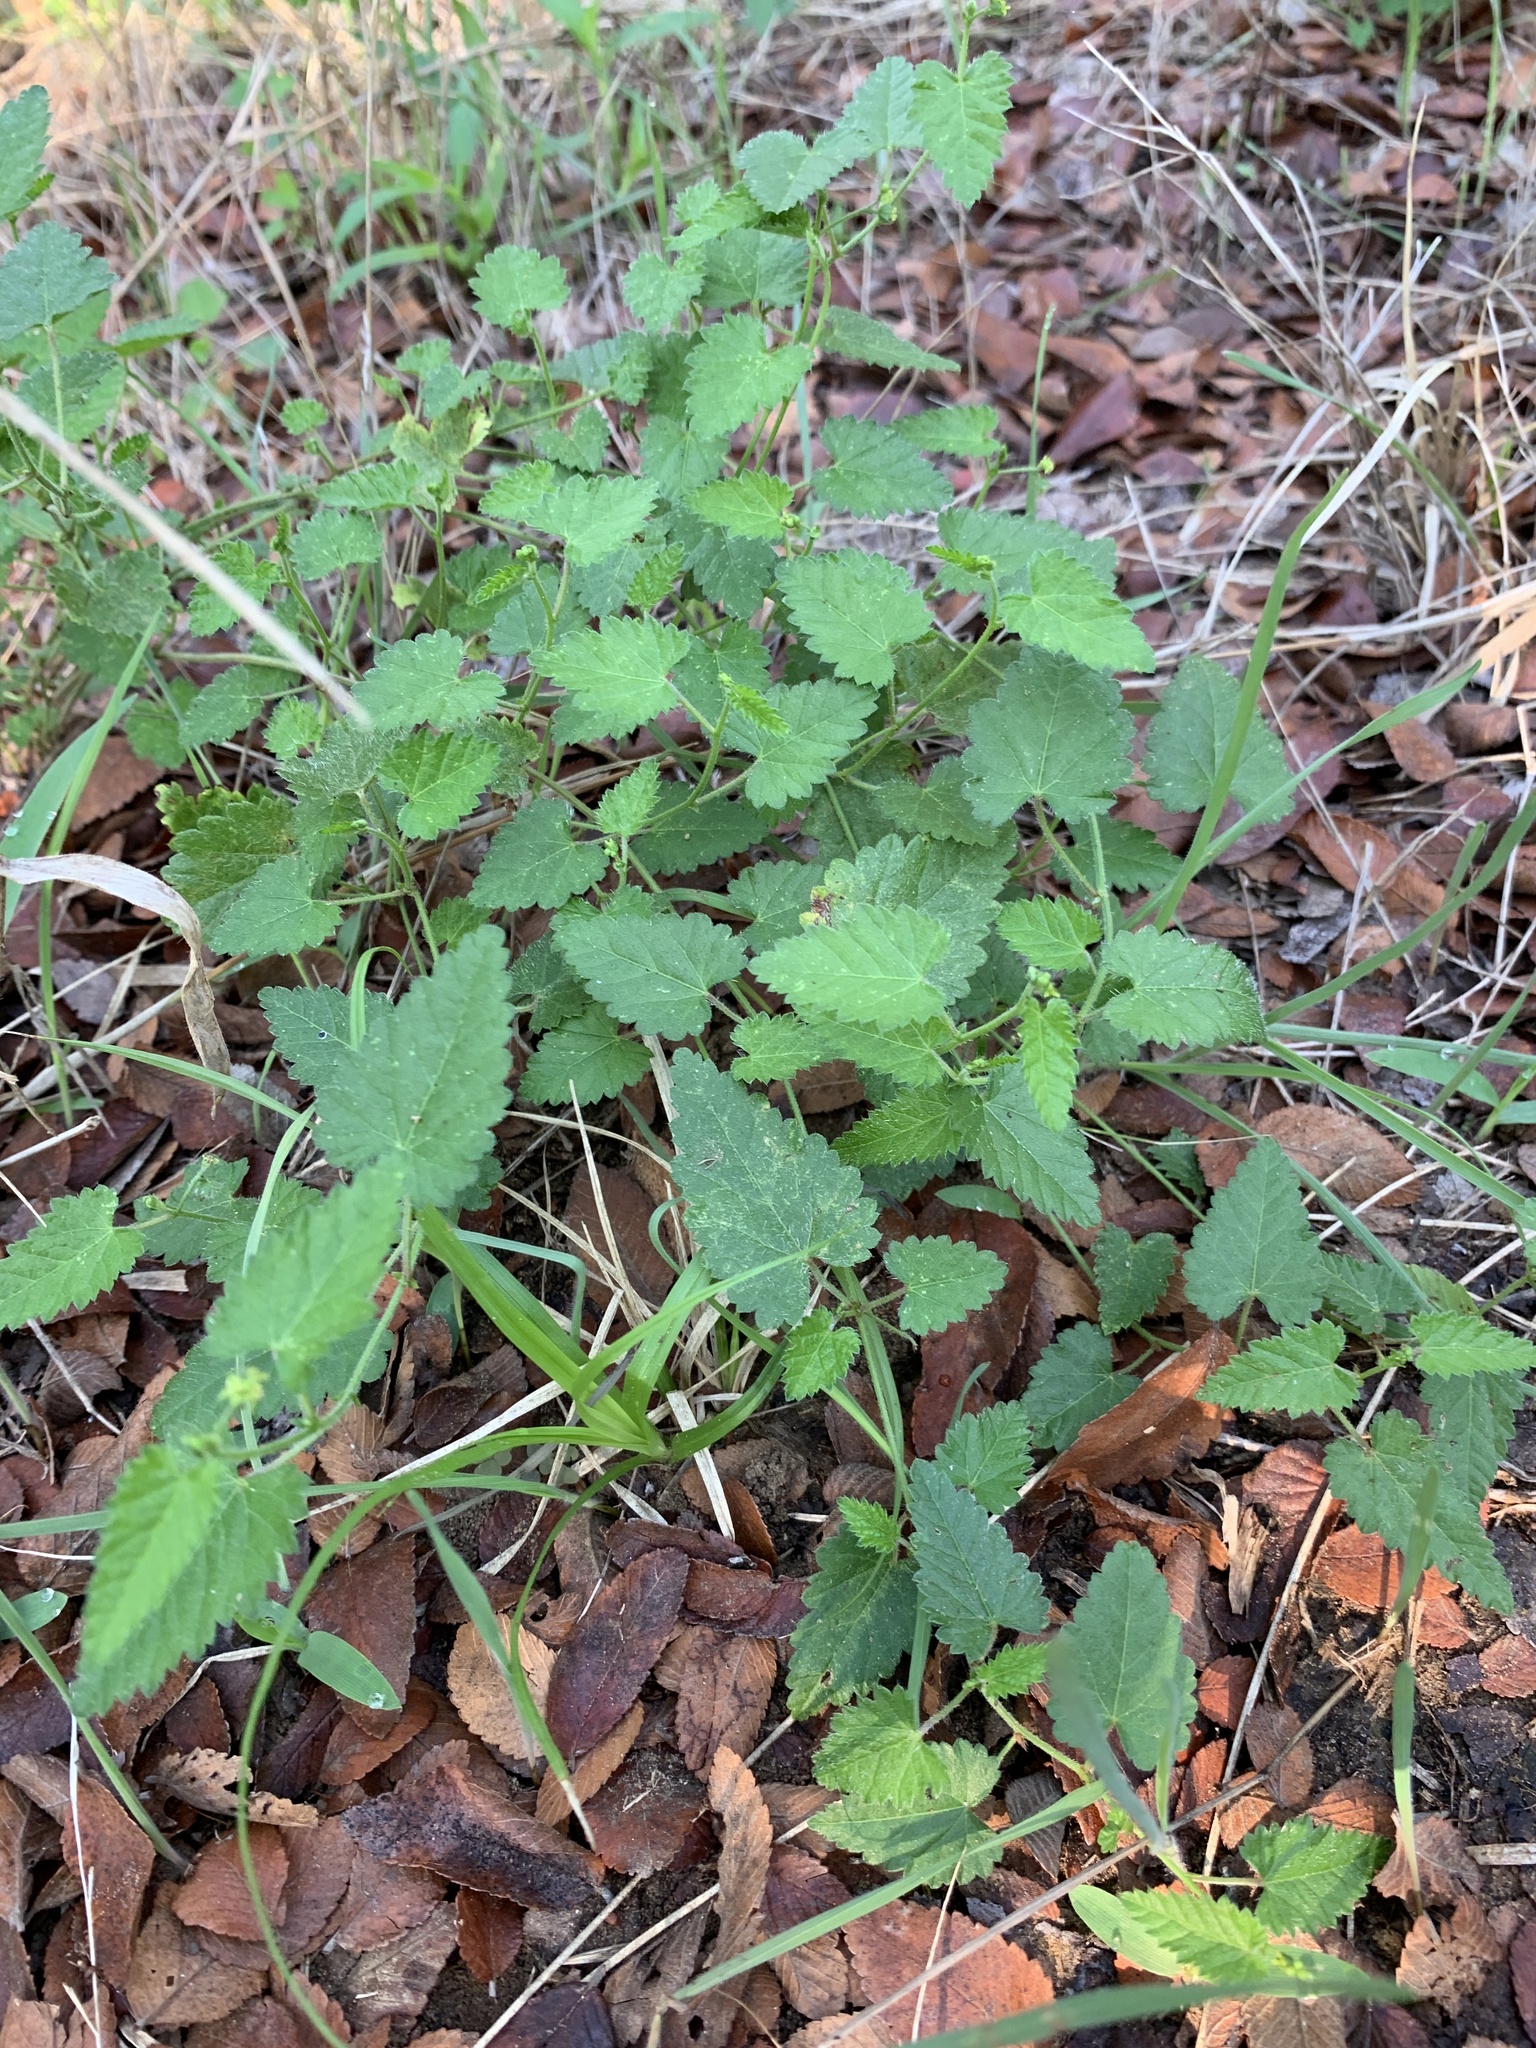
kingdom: Plantae
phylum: Tracheophyta
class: Magnoliopsida
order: Malpighiales
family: Euphorbiaceae
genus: Tragia
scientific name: Tragia urticifolia
